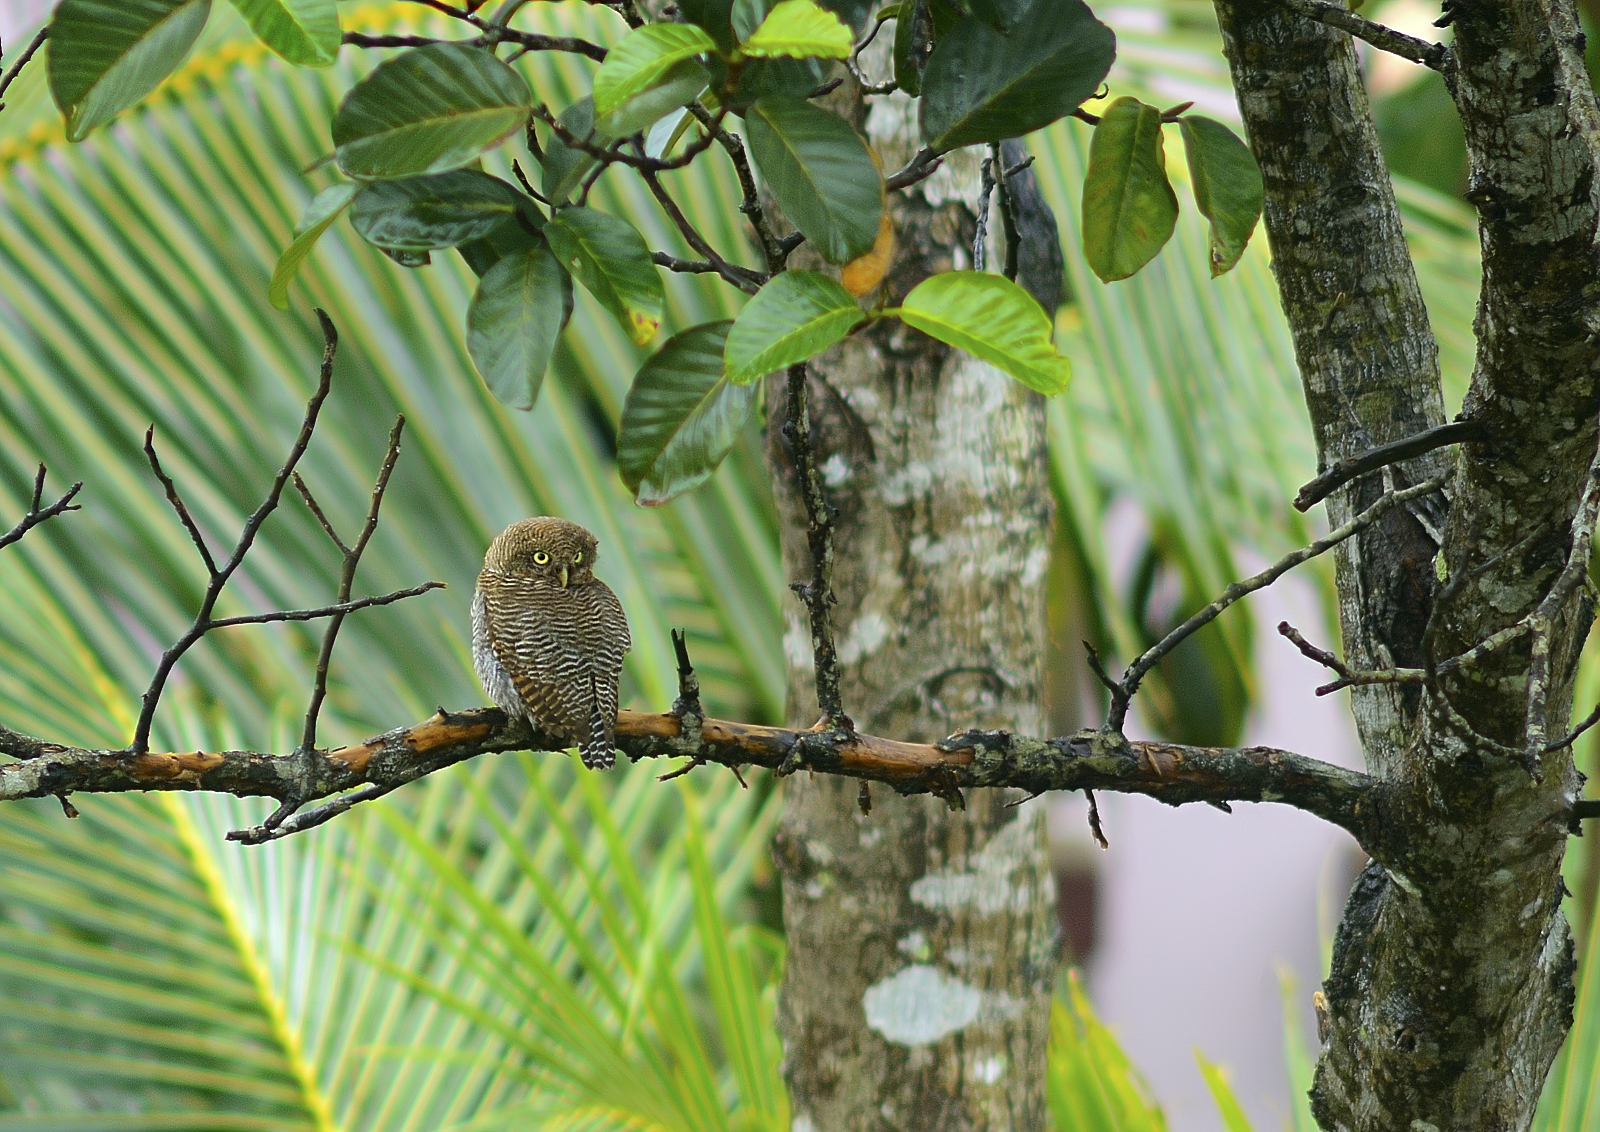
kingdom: Animalia
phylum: Chordata
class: Aves
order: Strigiformes
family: Strigidae
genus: Glaucidium
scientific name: Glaucidium radiatum
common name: Jungle owlet
